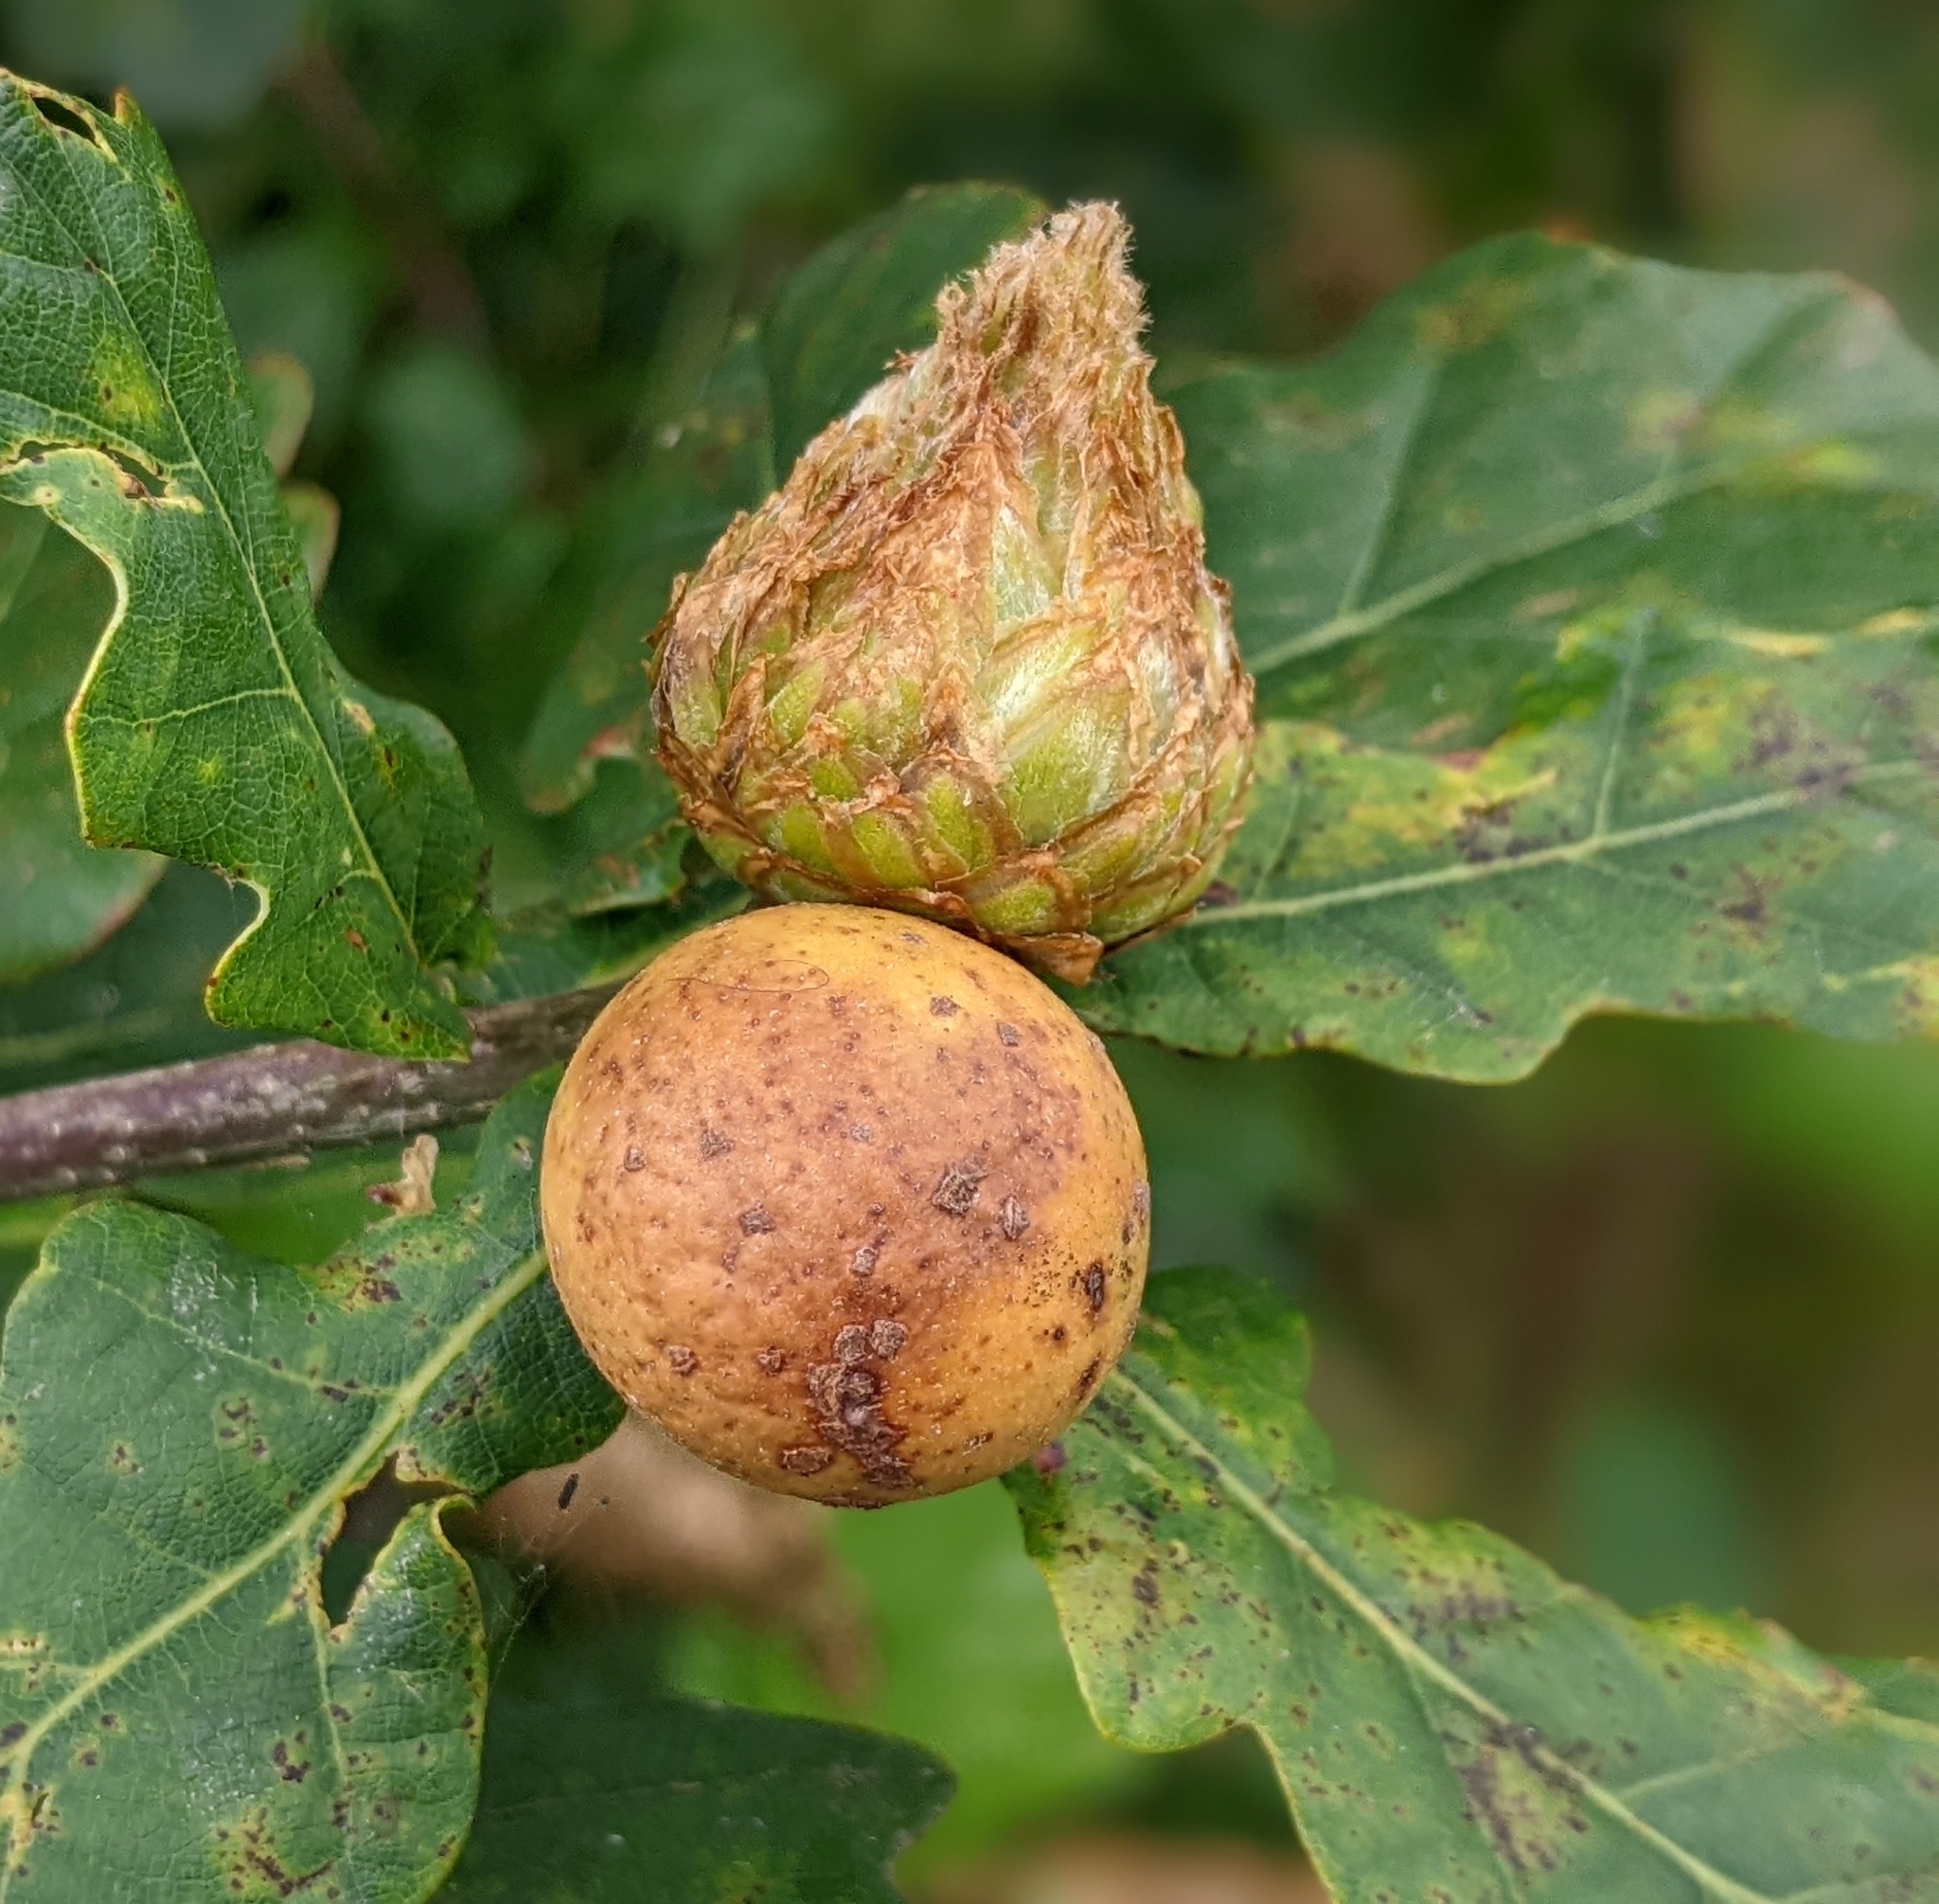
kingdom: Animalia
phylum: Arthropoda
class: Insecta
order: Hymenoptera
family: Cynipidae
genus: Andricus
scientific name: Andricus foecundatrix
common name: Artichoke gall
